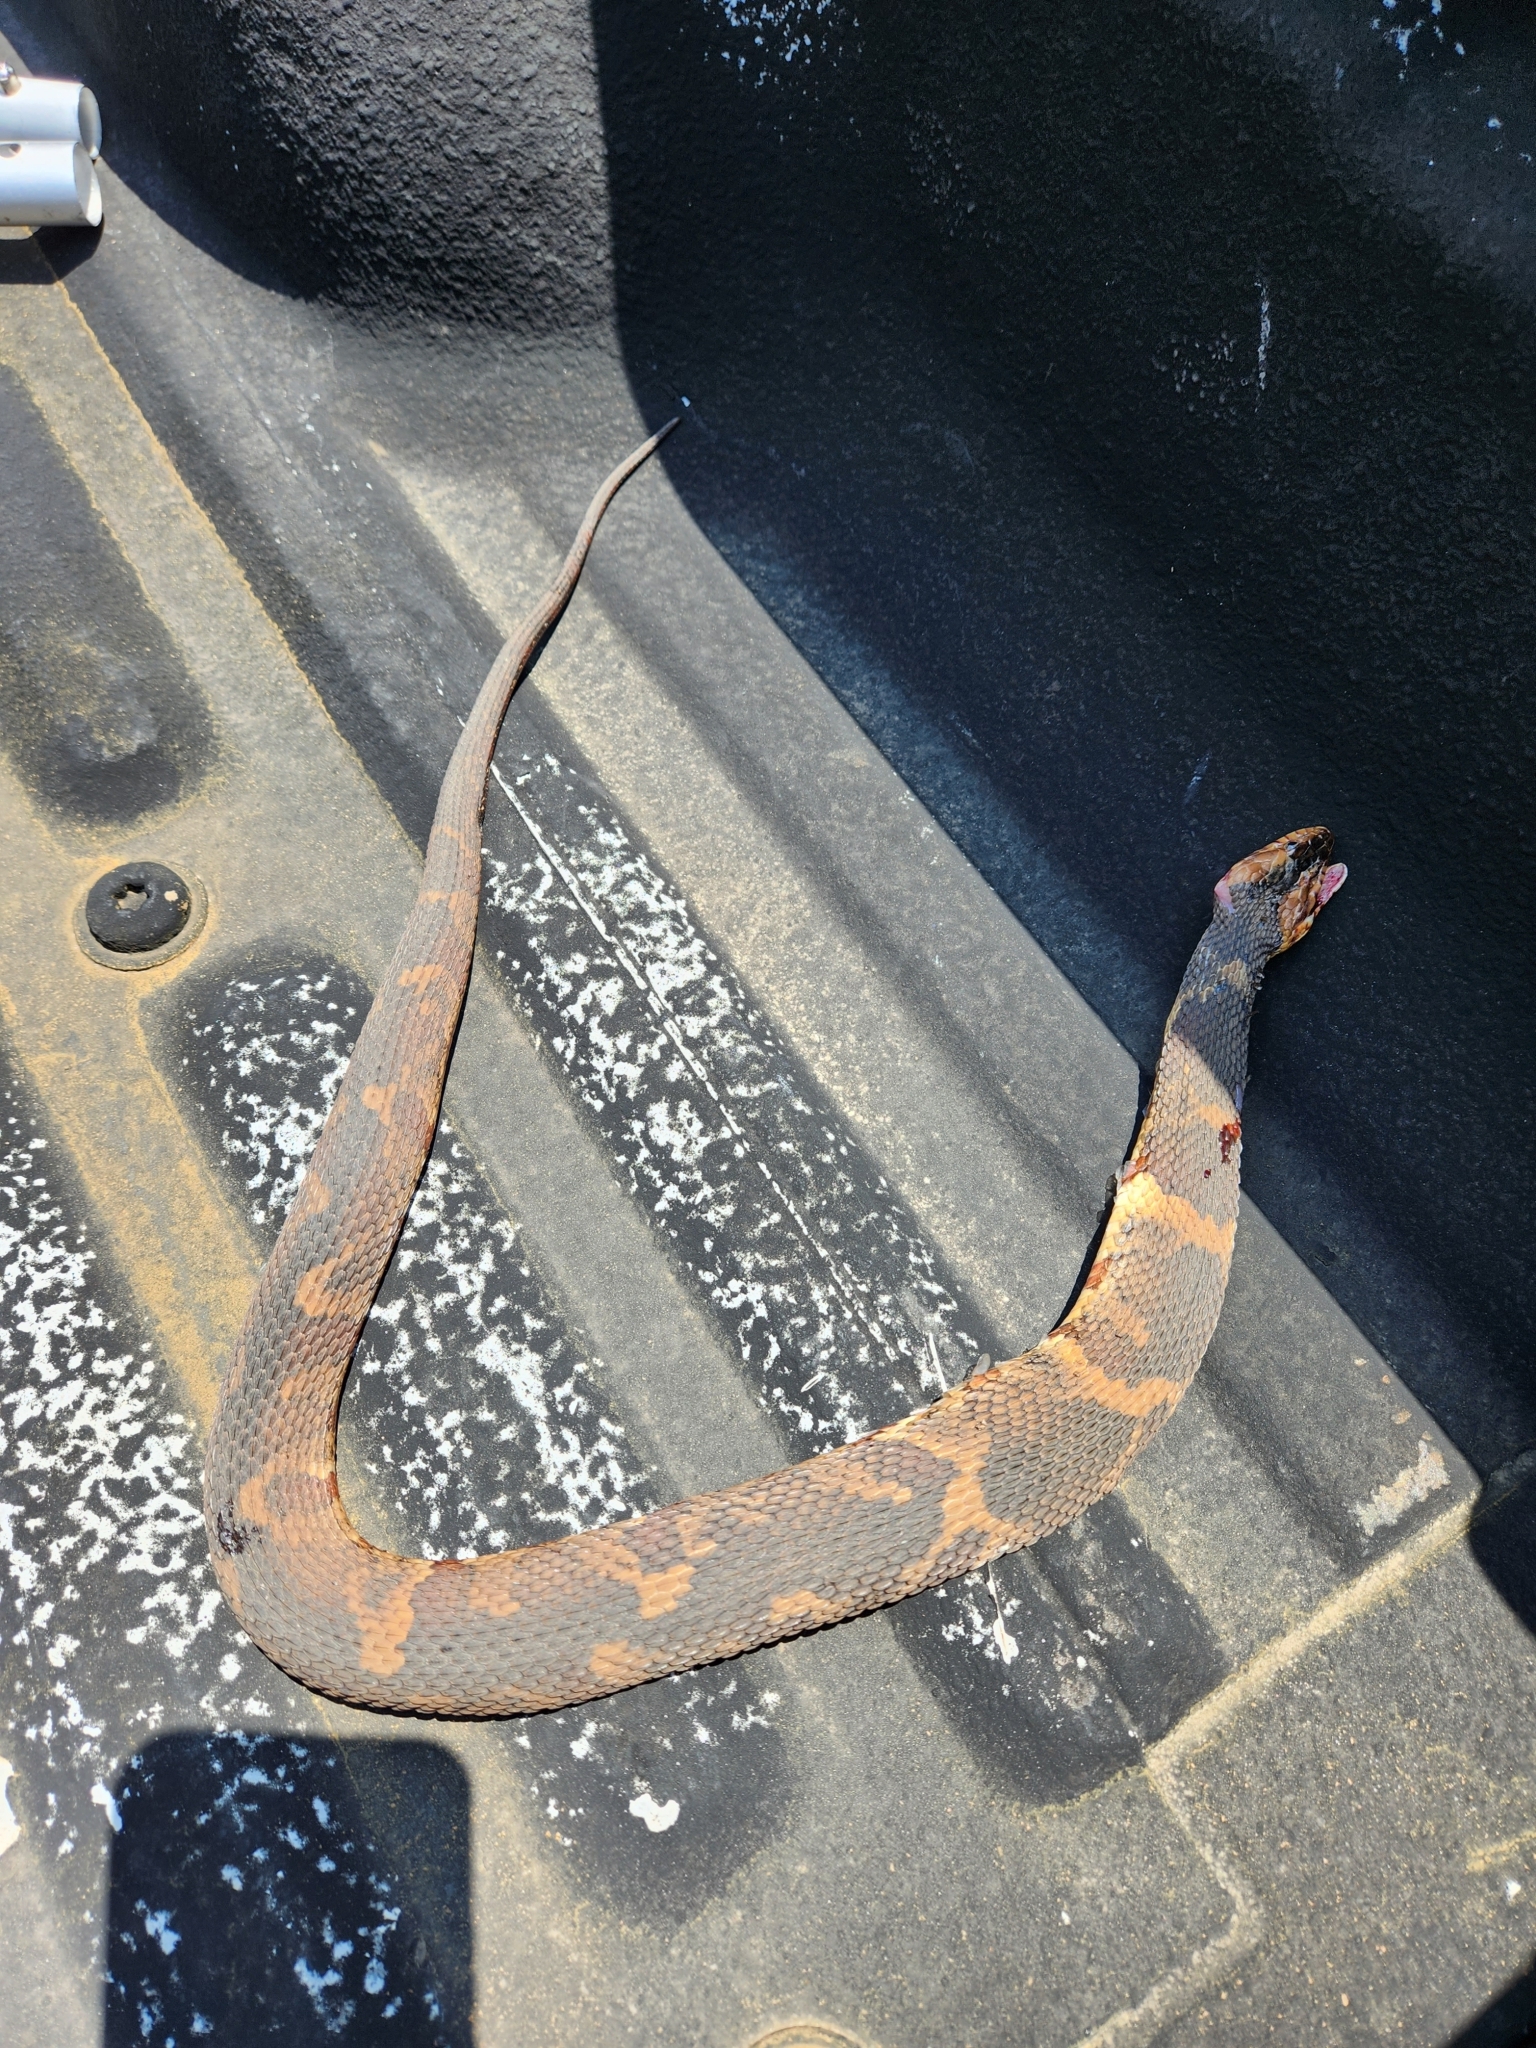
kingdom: Animalia
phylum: Chordata
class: Squamata
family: Colubridae
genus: Nerodia
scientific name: Nerodia fasciata
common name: Southern water snake
